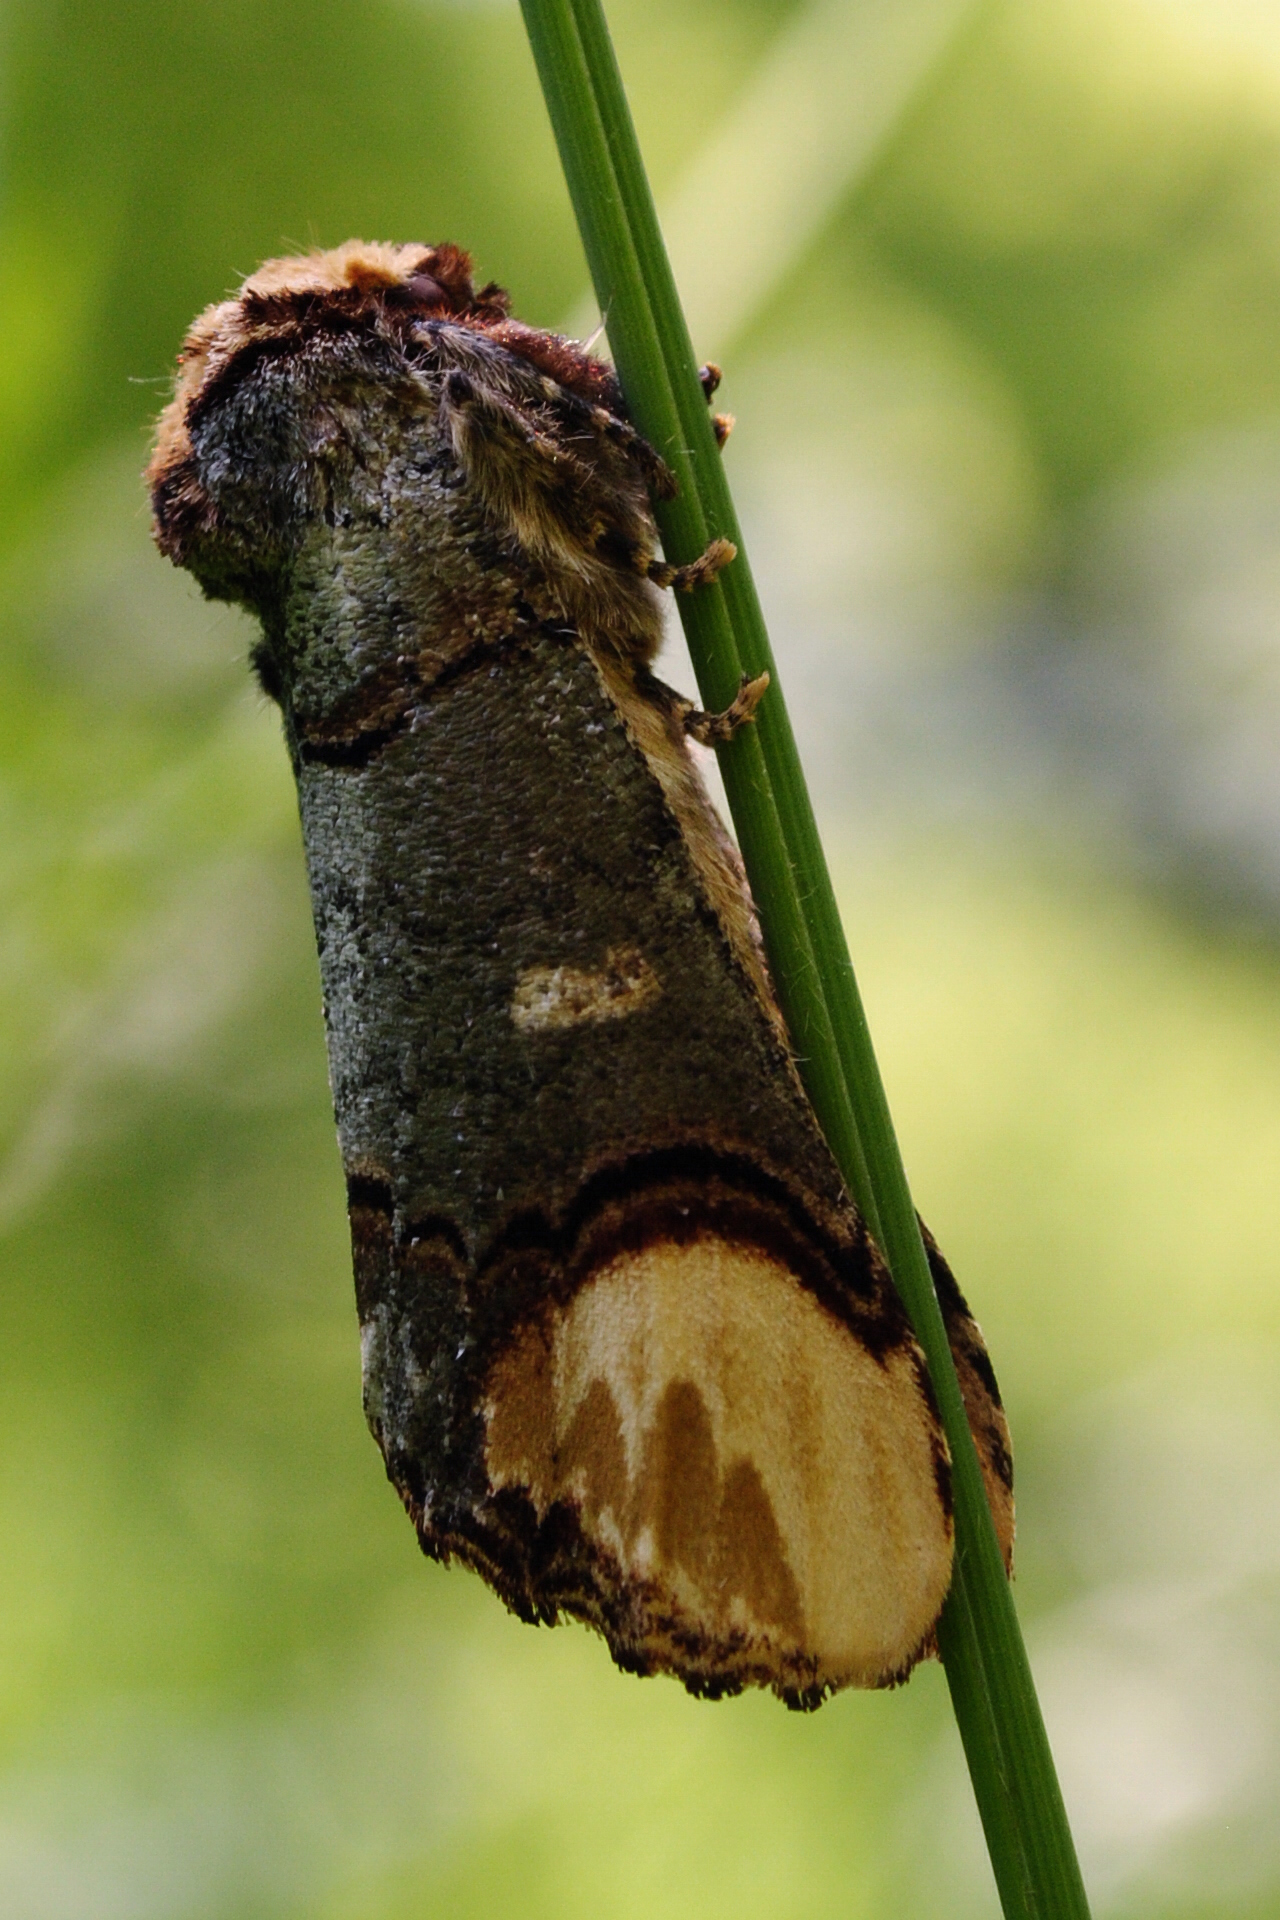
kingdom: Animalia
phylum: Arthropoda
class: Insecta
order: Lepidoptera
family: Notodontidae
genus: Phalera
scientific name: Phalera bucephala
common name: Buff-tip
